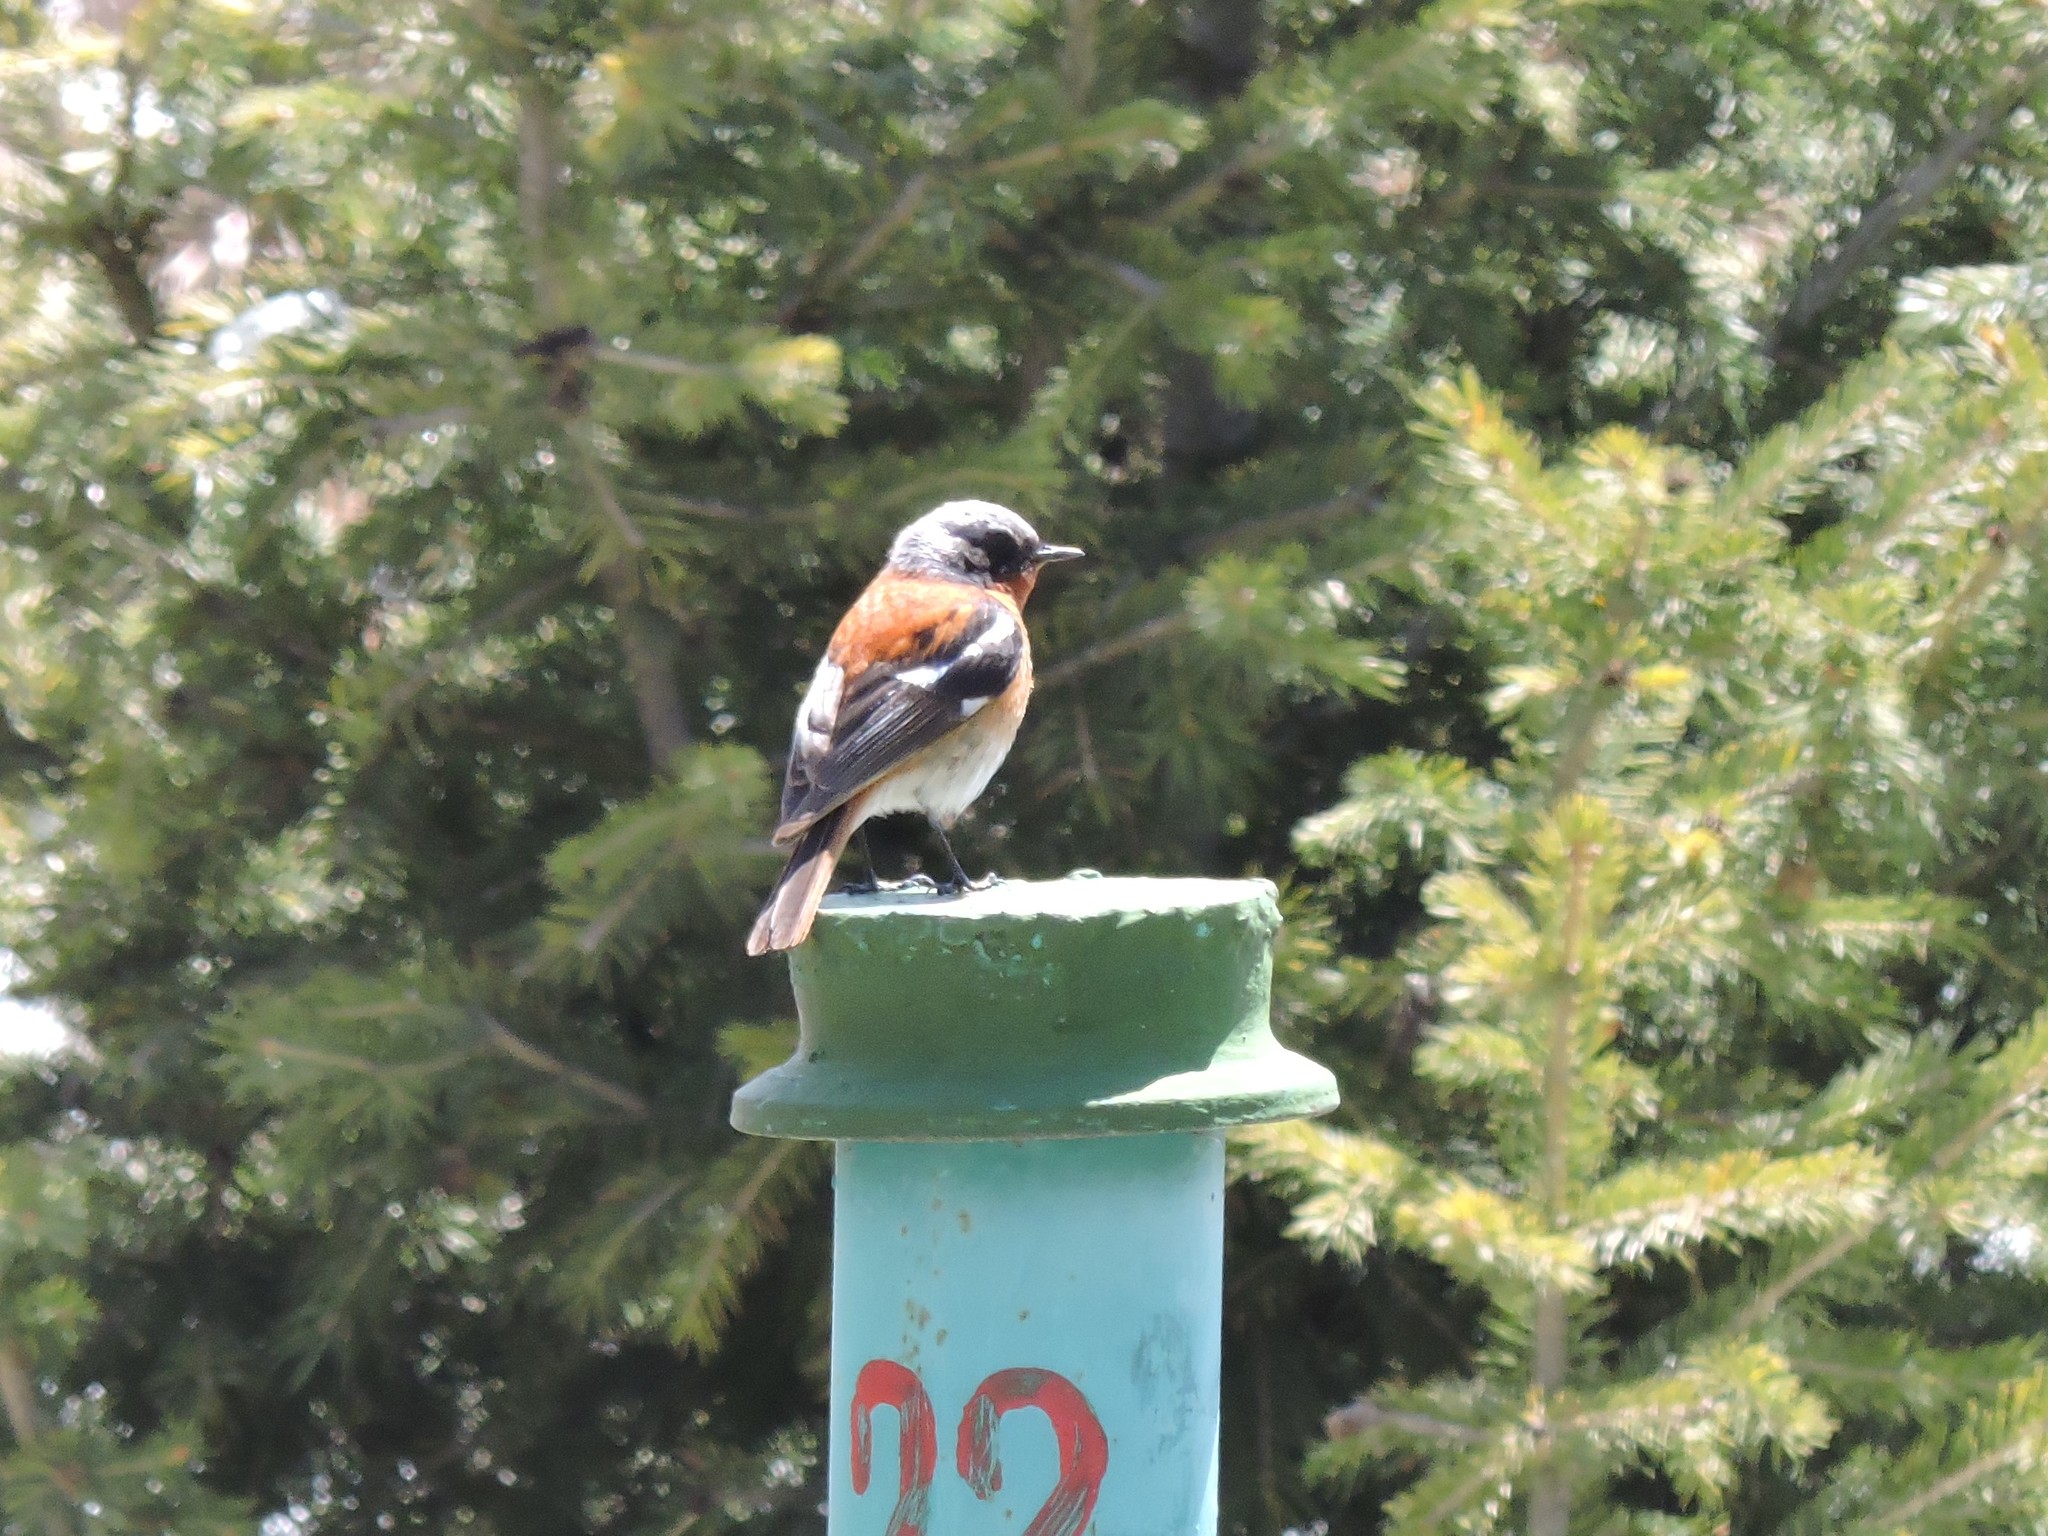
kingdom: Animalia
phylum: Chordata
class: Aves
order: Passeriformes
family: Muscicapidae
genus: Phoenicurus
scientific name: Phoenicurus erythronotus
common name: Eversmann's redstart
